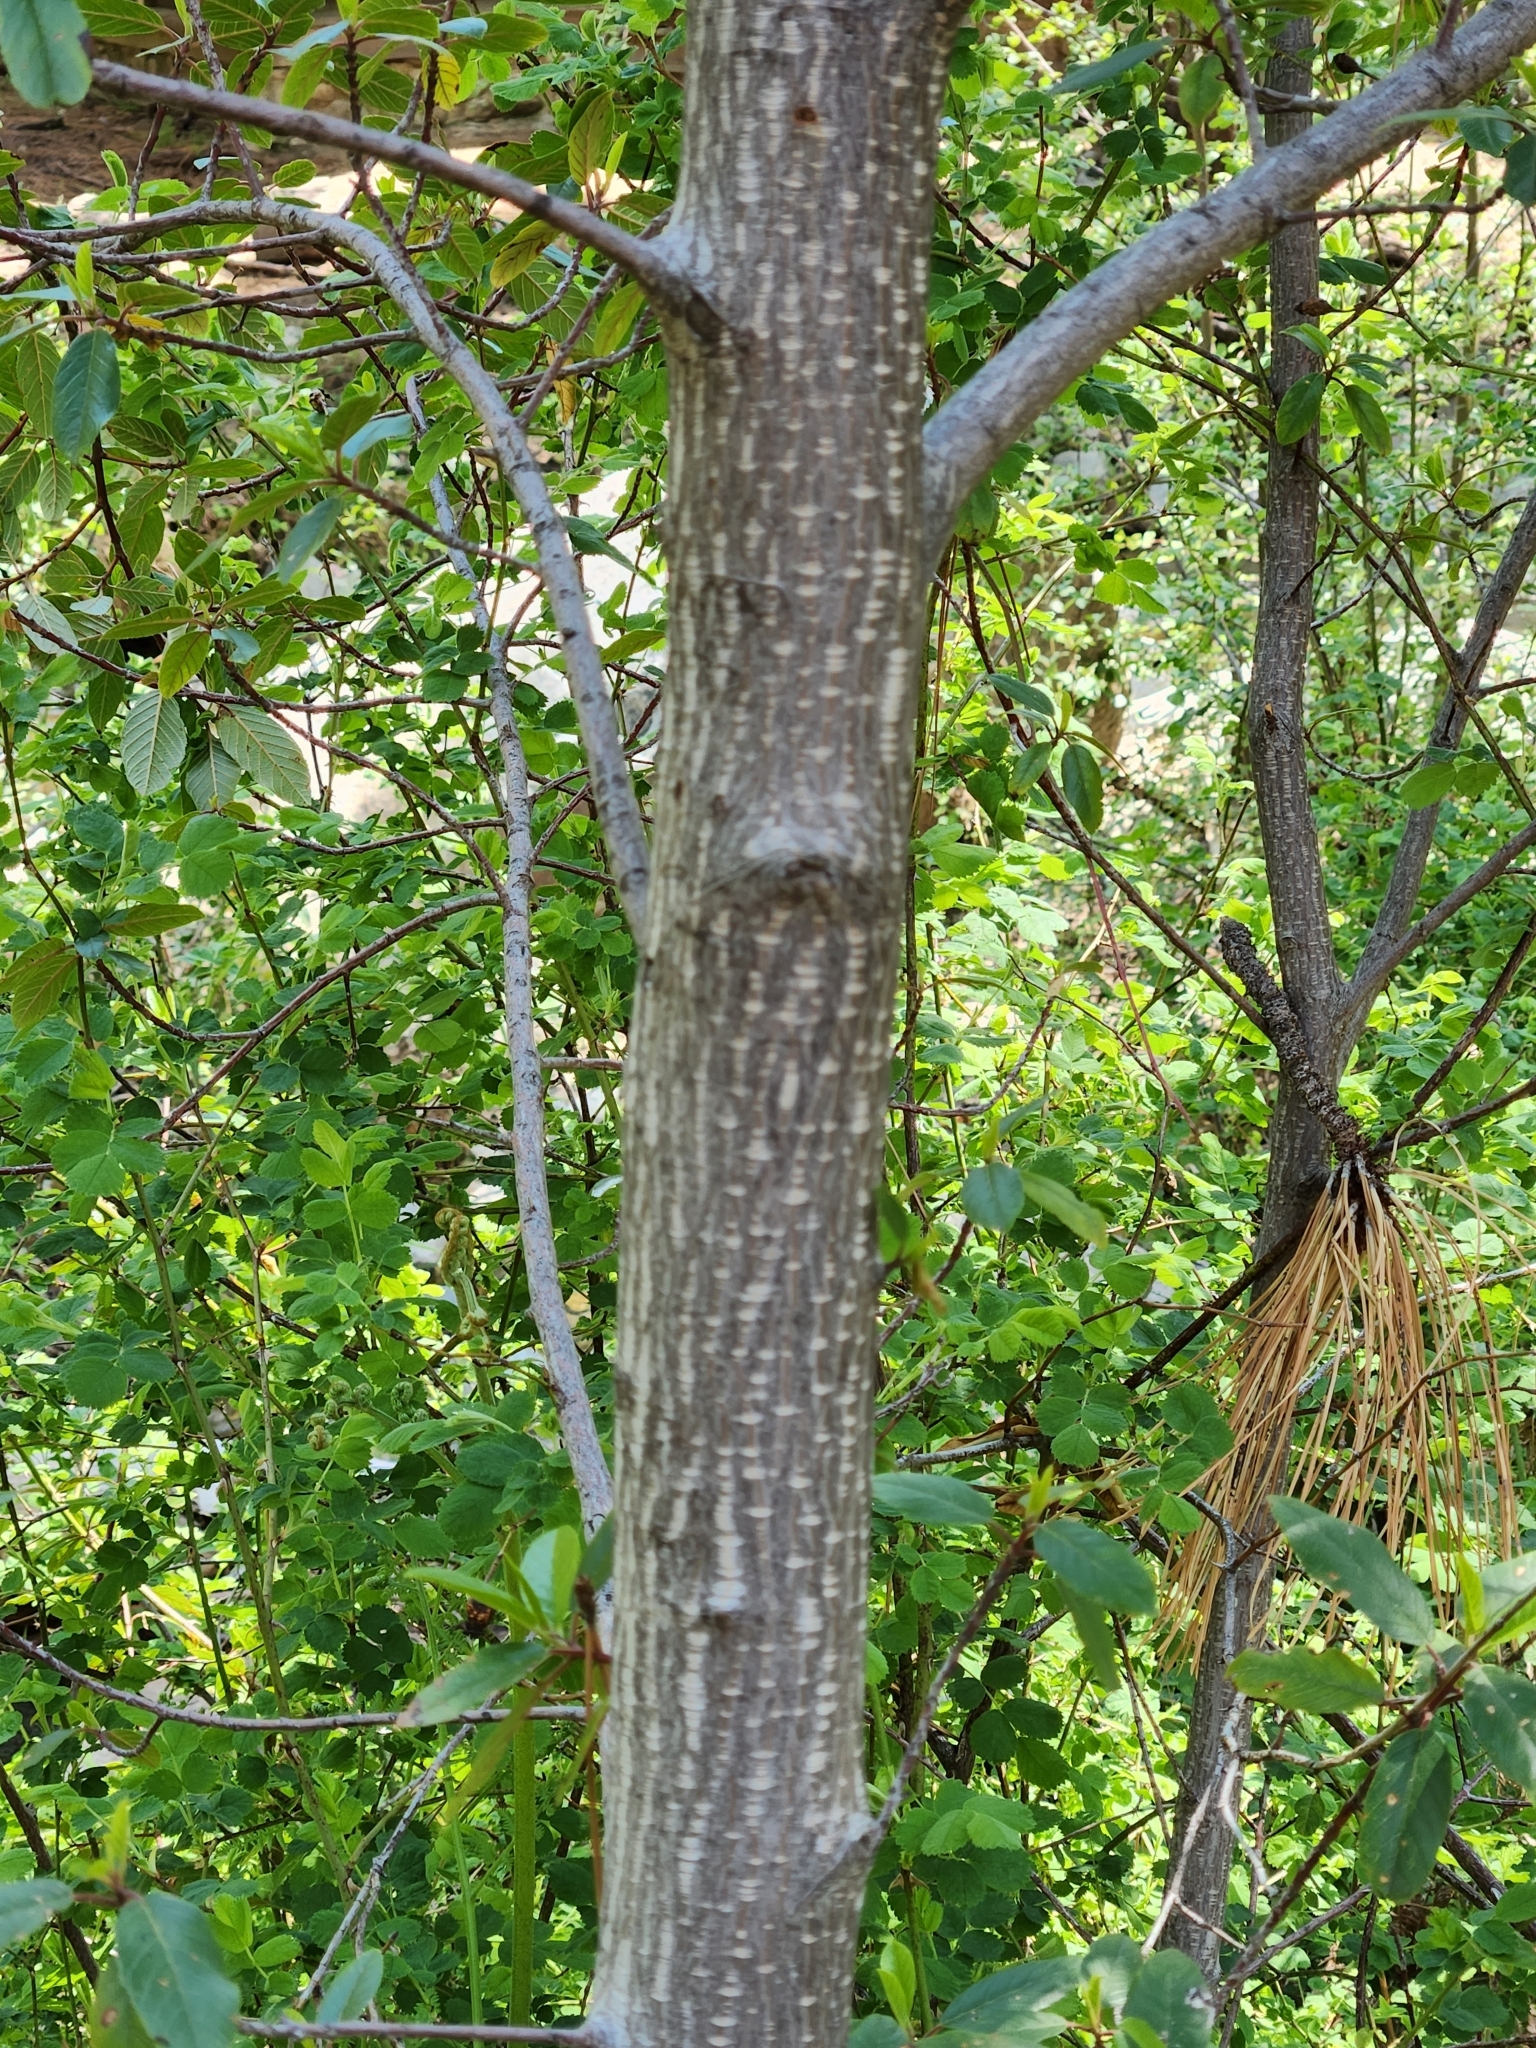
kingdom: Plantae
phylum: Tracheophyta
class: Magnoliopsida
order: Fagales
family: Betulaceae
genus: Alnus
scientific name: Alnus rhombifolia
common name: California alder
